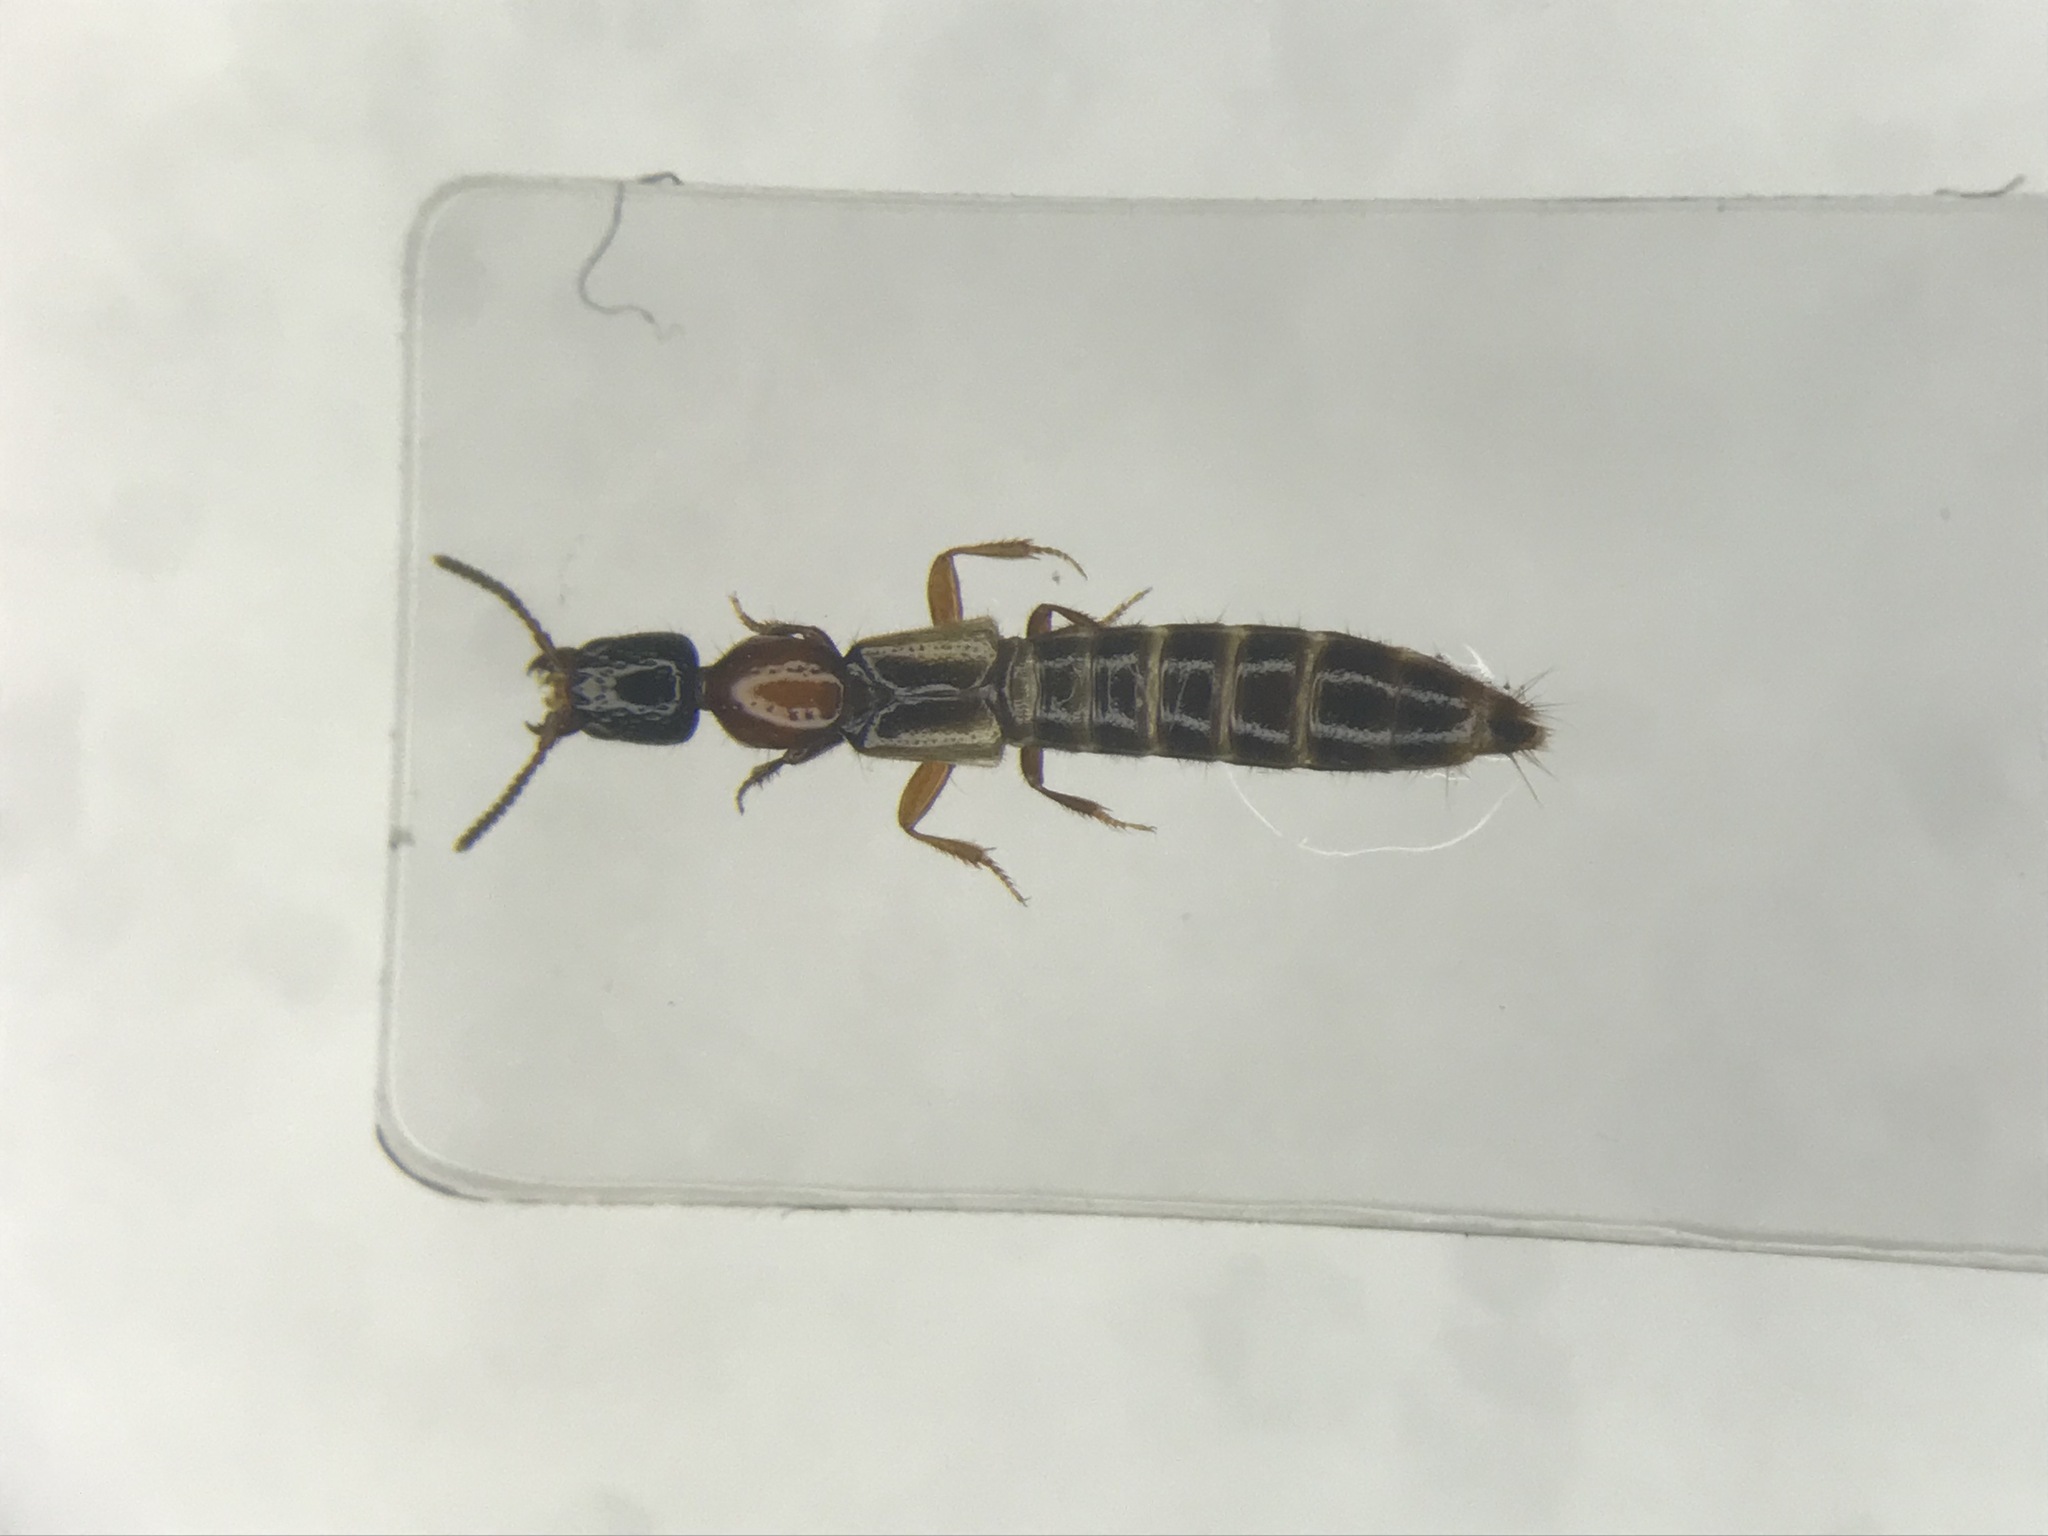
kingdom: Animalia
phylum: Arthropoda
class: Insecta
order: Coleoptera
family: Staphylinidae
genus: Phacophallus
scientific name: Phacophallus pallidipennis
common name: Staph beetle
